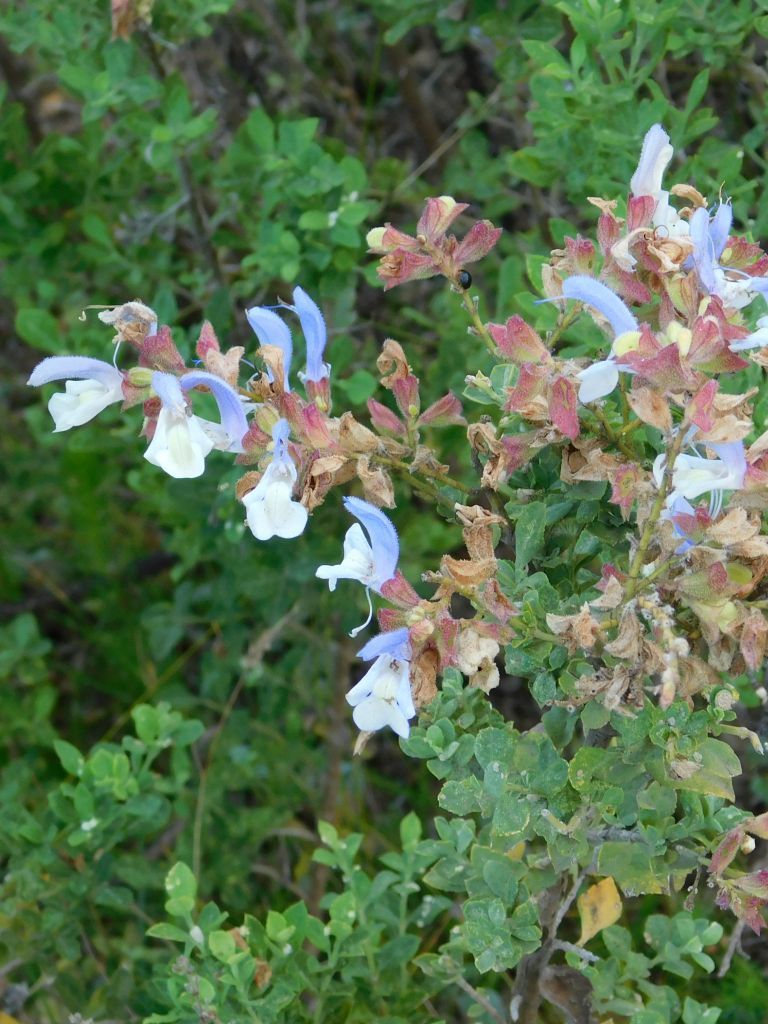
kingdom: Plantae
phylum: Tracheophyta
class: Magnoliopsida
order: Lamiales
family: Lamiaceae
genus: Salvia
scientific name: Salvia chamelaeagnea
